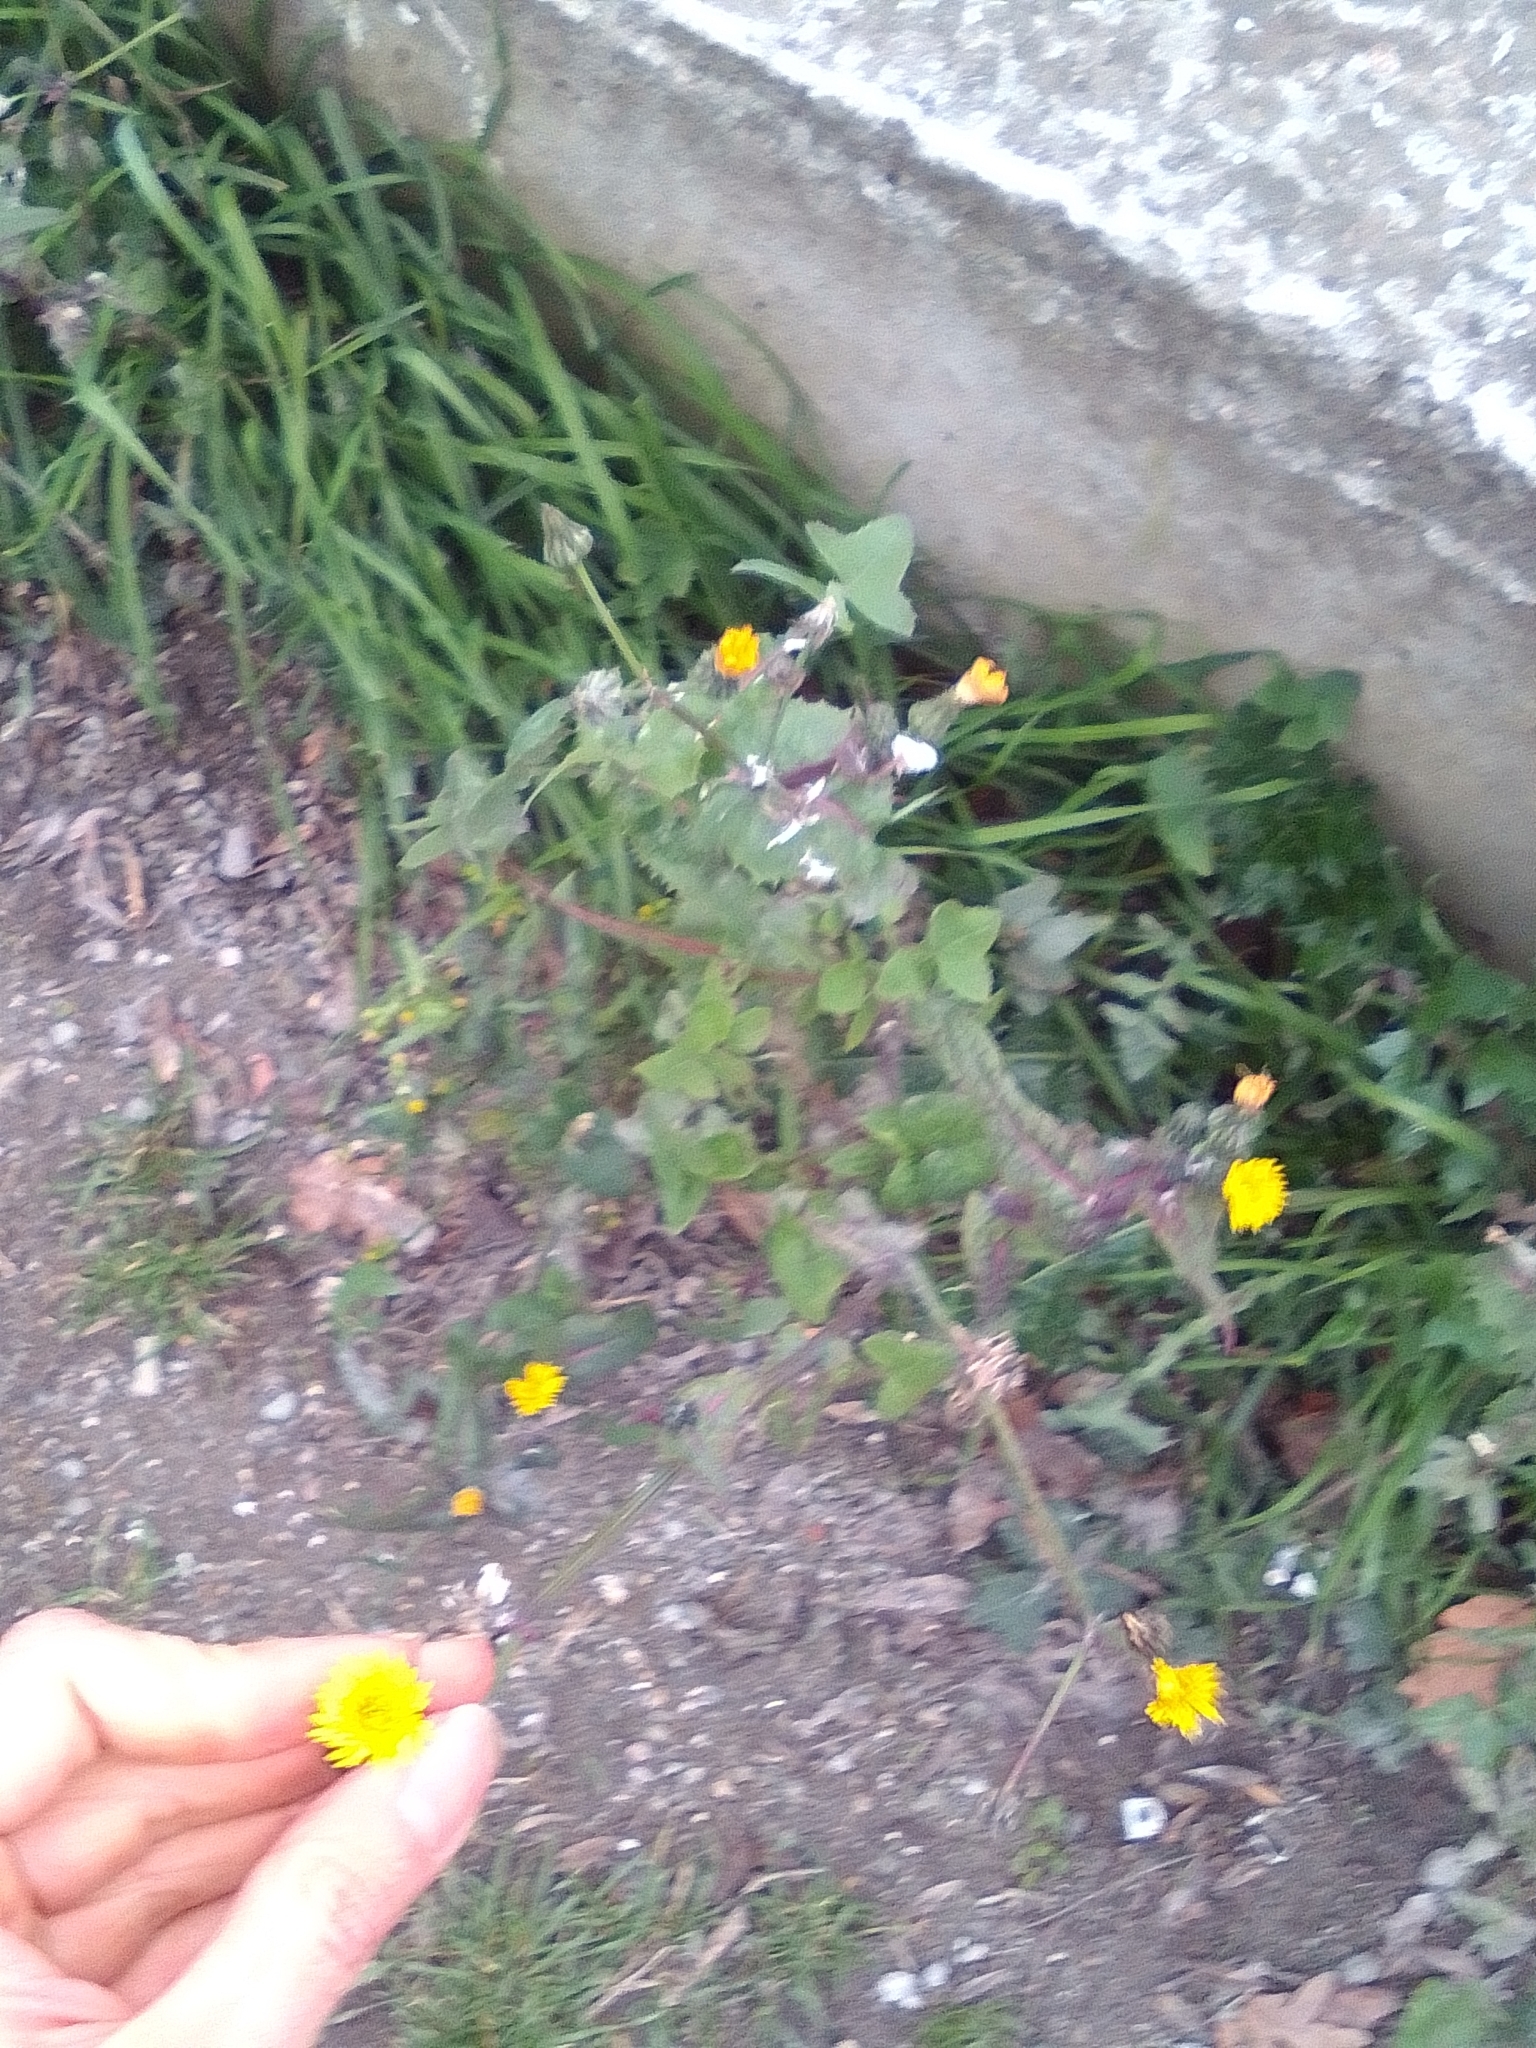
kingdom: Plantae
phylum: Tracheophyta
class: Magnoliopsida
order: Asterales
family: Asteraceae
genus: Sonchus
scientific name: Sonchus oleraceus
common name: Common sowthistle
